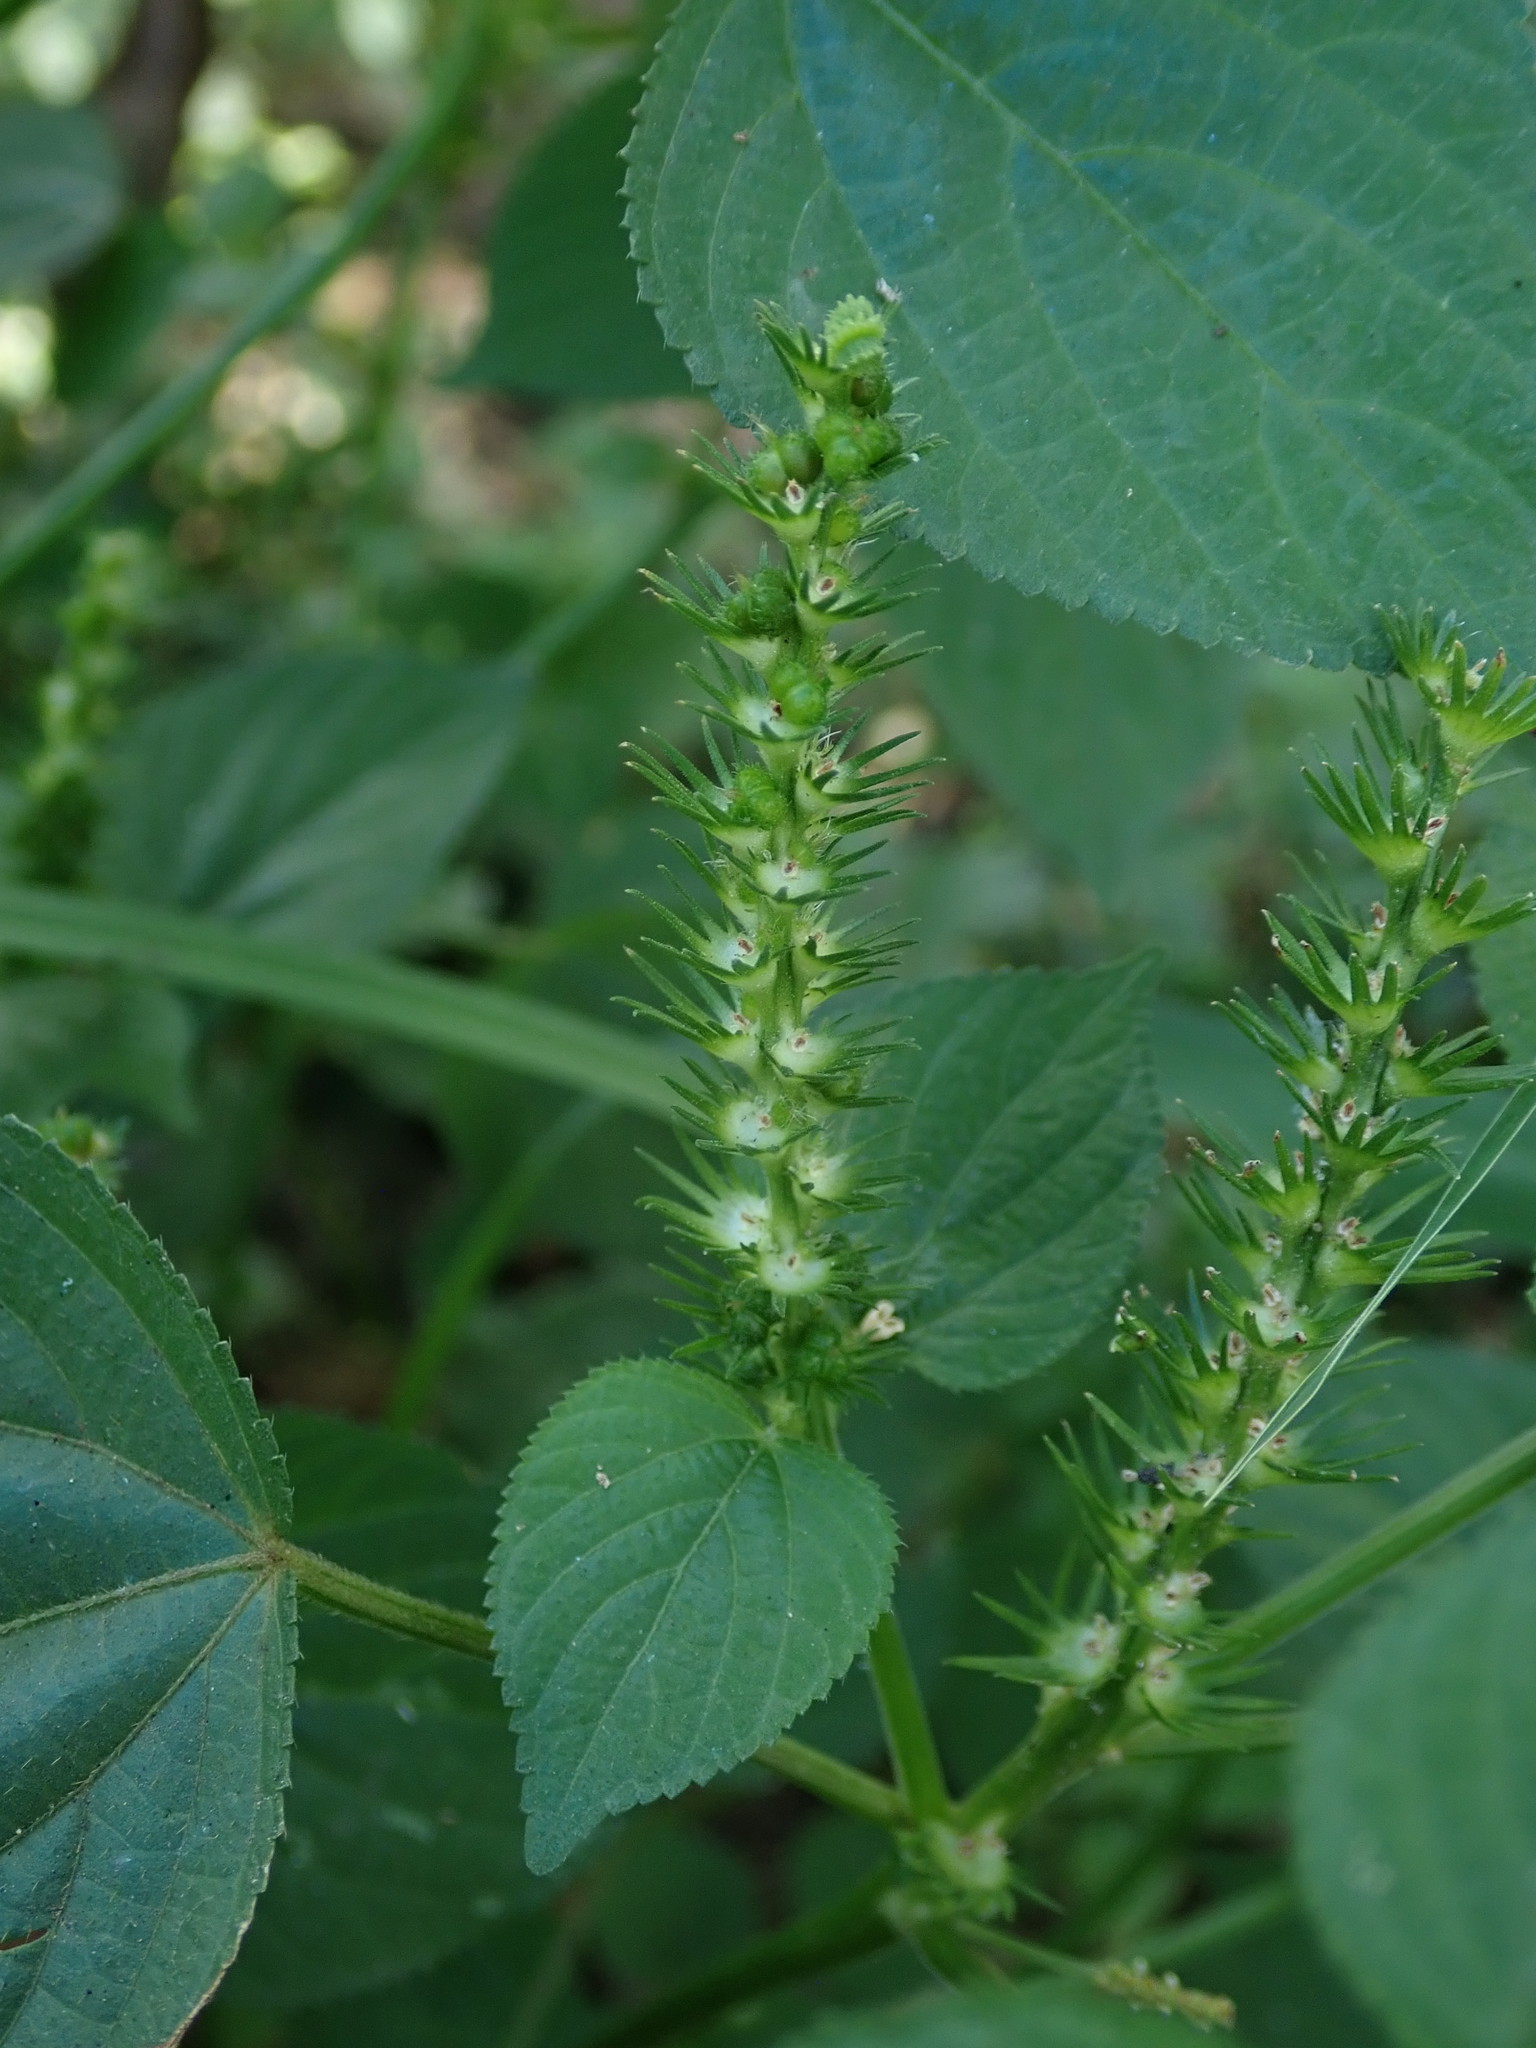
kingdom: Plantae
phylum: Tracheophyta
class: Magnoliopsida
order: Malpighiales
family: Euphorbiaceae
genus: Acalypha
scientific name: Acalypha ostryifolia
